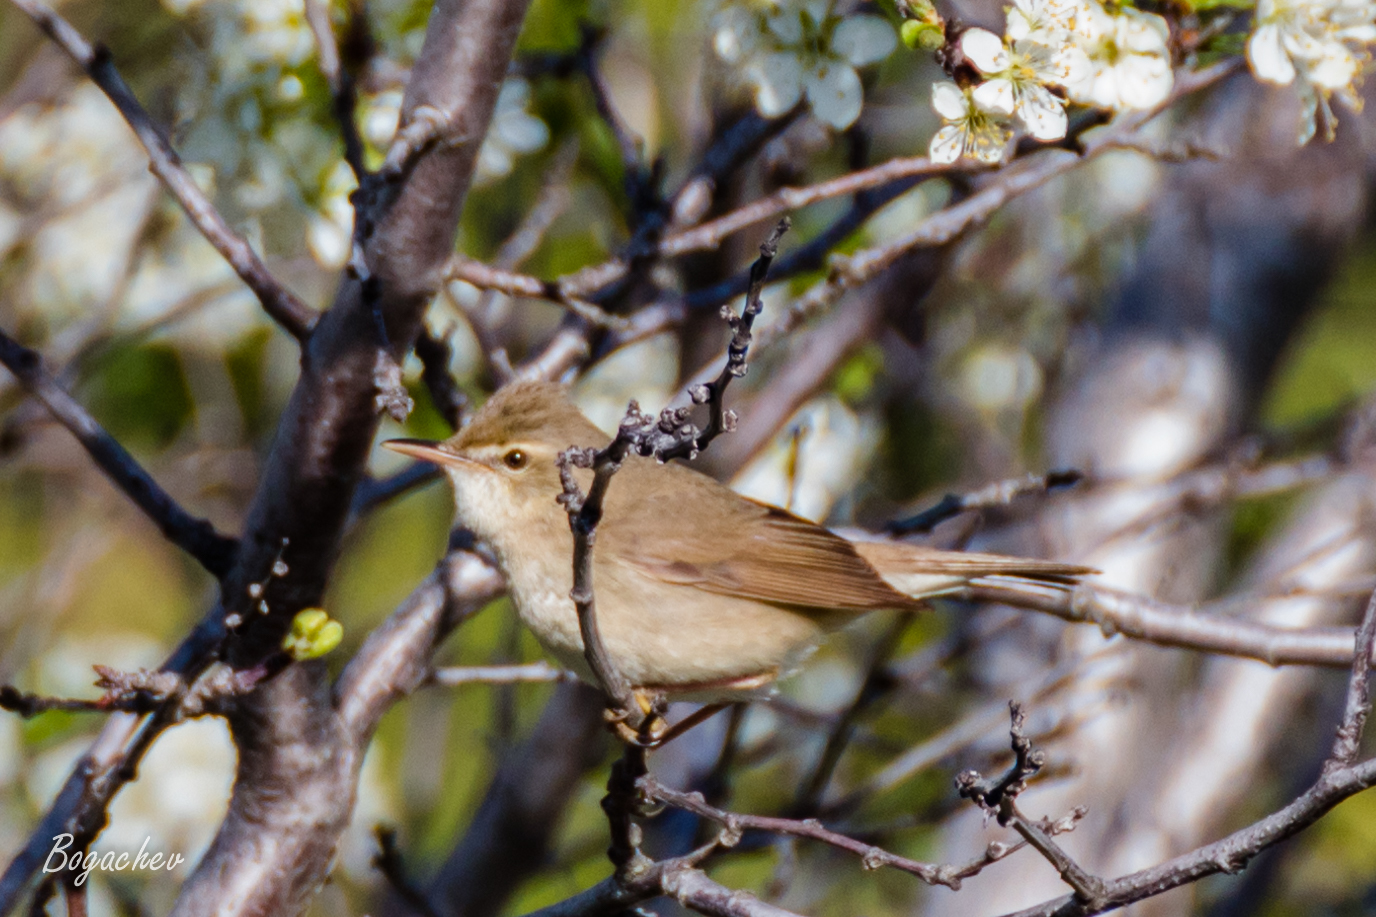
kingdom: Animalia
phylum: Chordata
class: Aves
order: Passeriformes
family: Acrocephalidae
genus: Acrocephalus
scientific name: Acrocephalus dumetorum
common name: Blyth's reed warbler
